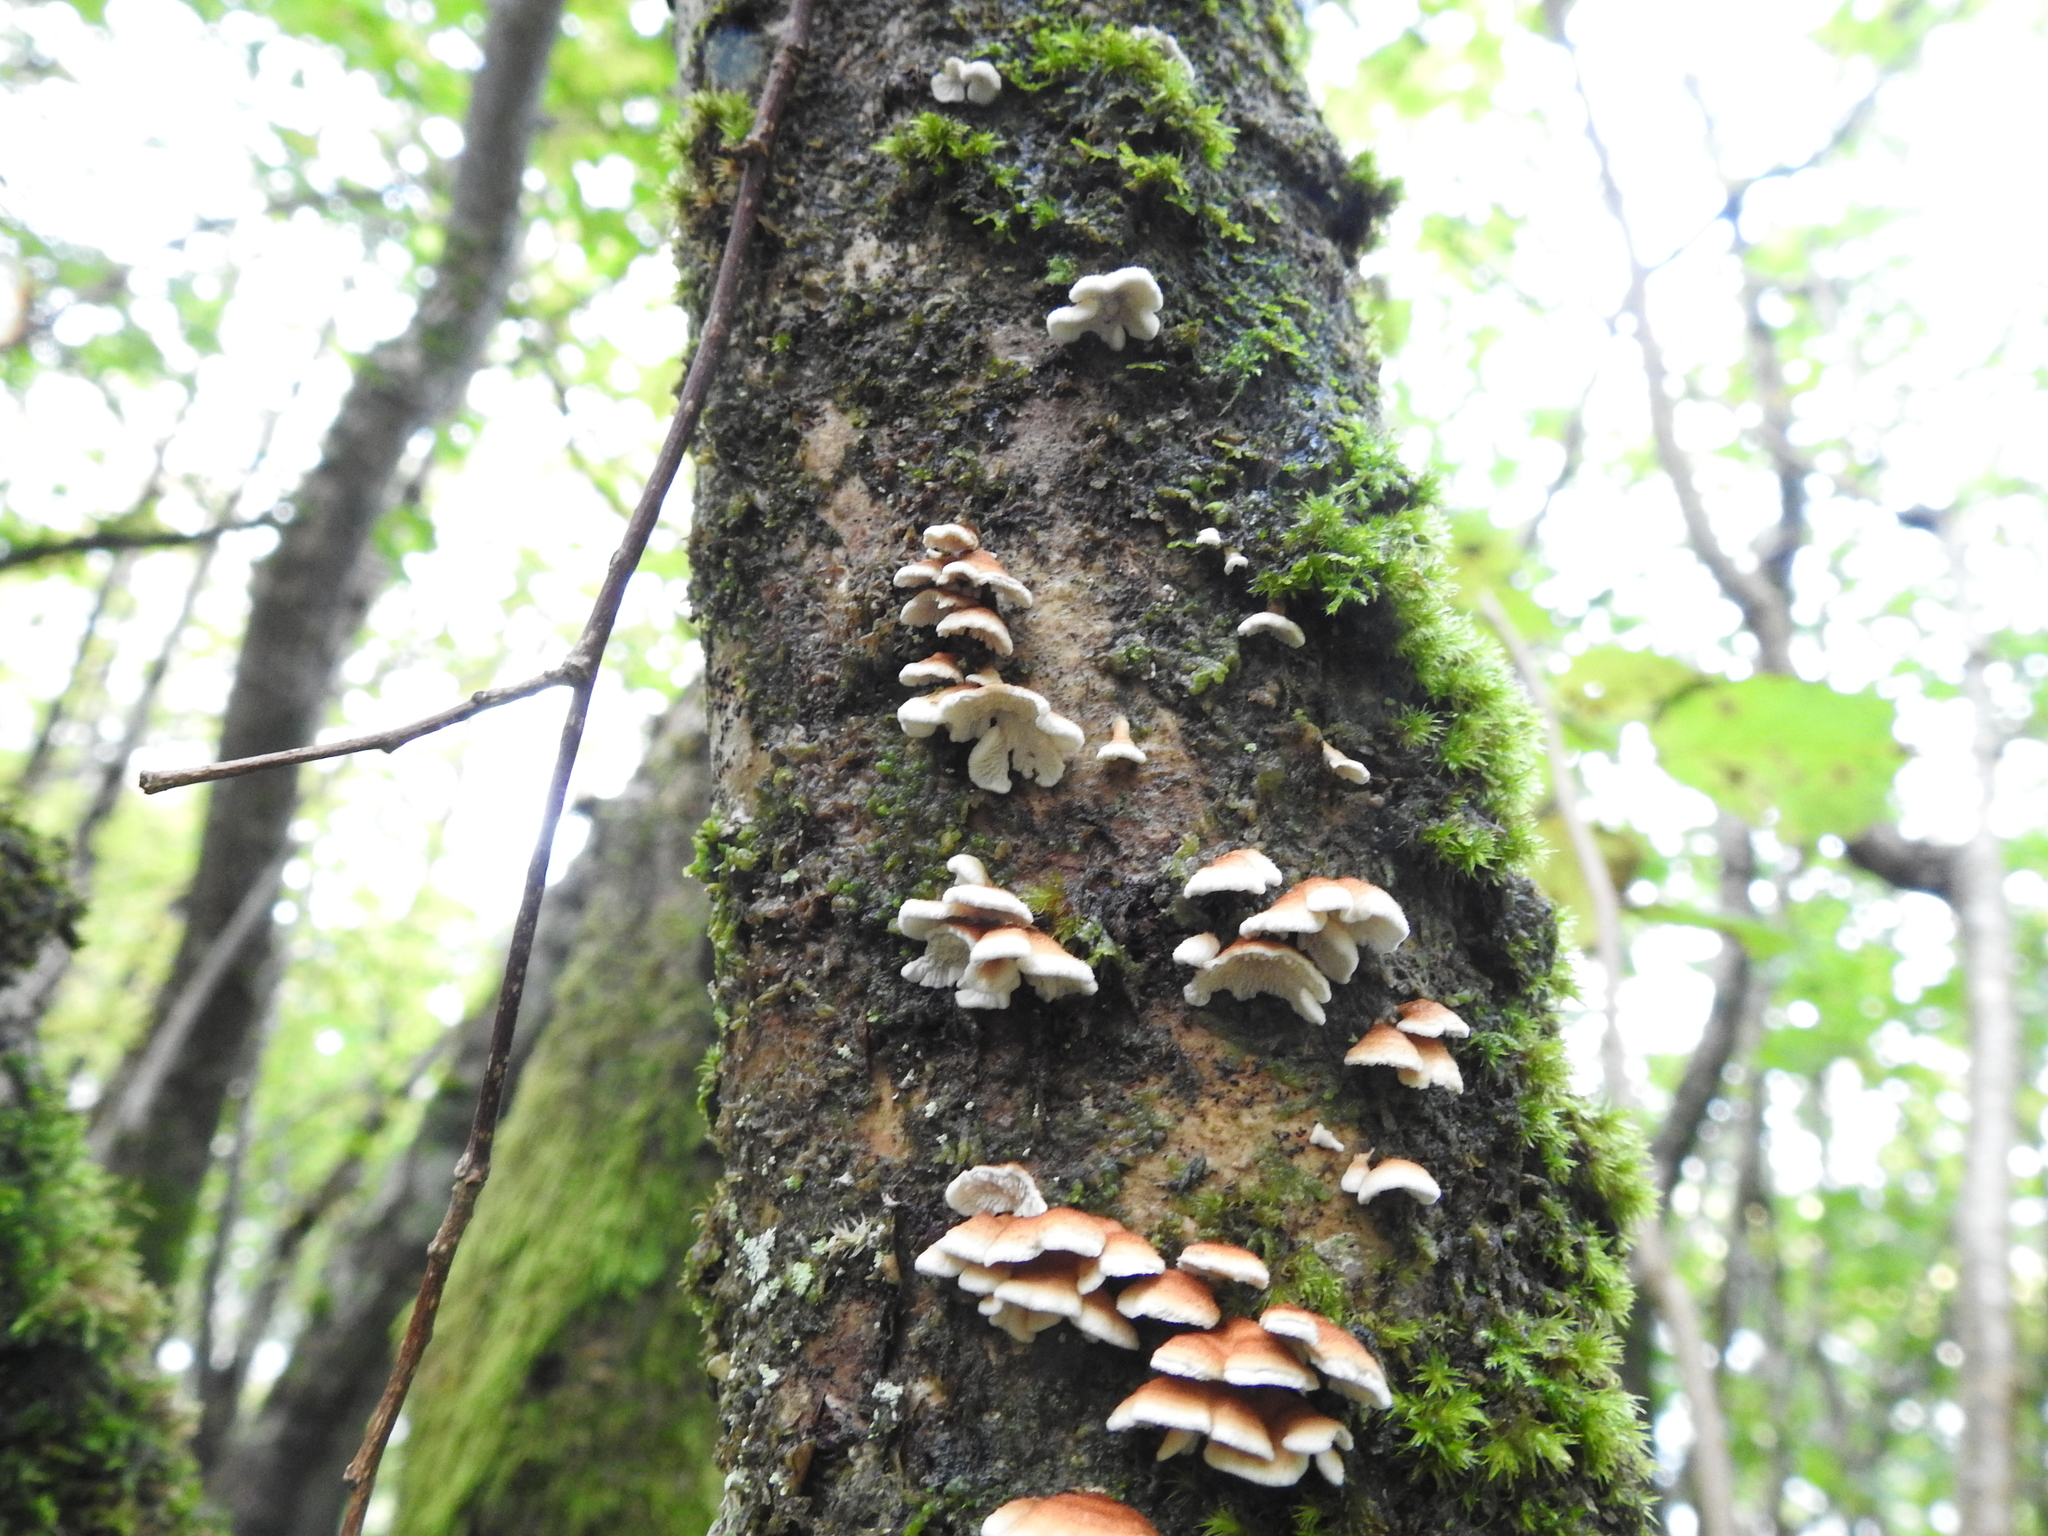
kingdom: Fungi
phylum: Basidiomycota
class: Agaricomycetes
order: Amylocorticiales
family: Amylocorticiaceae
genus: Plicaturopsis
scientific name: Plicaturopsis crispa
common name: Crimped gill
